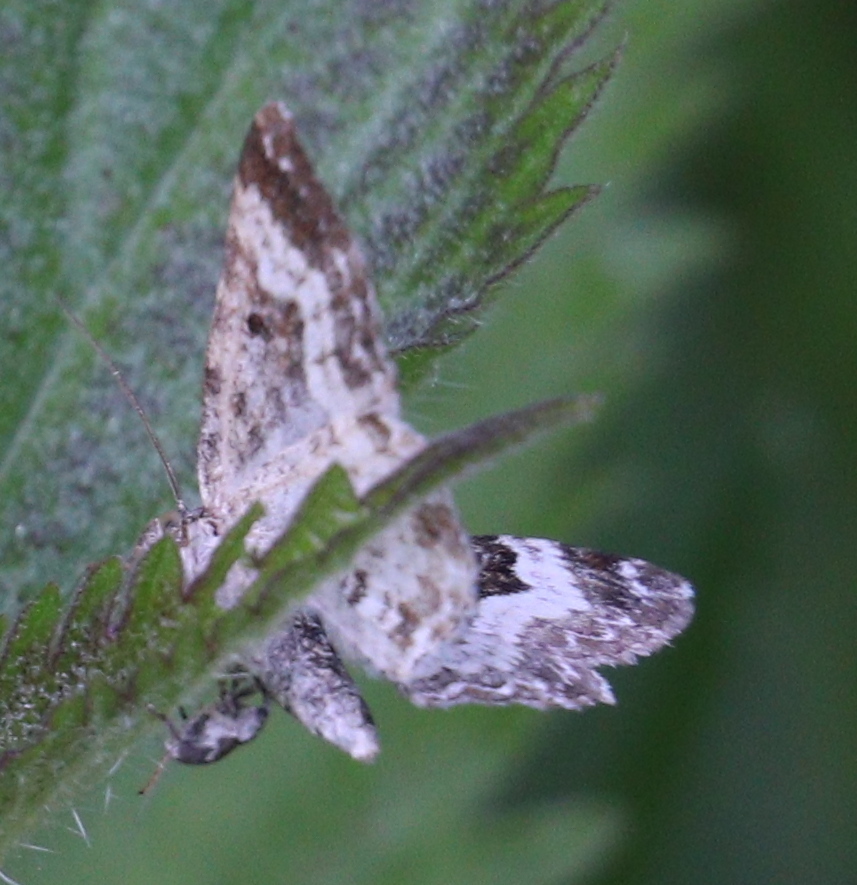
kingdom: Animalia
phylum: Arthropoda
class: Insecta
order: Lepidoptera
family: Geometridae
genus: Epirrhoe
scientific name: Epirrhoe alternata
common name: Common carpet
